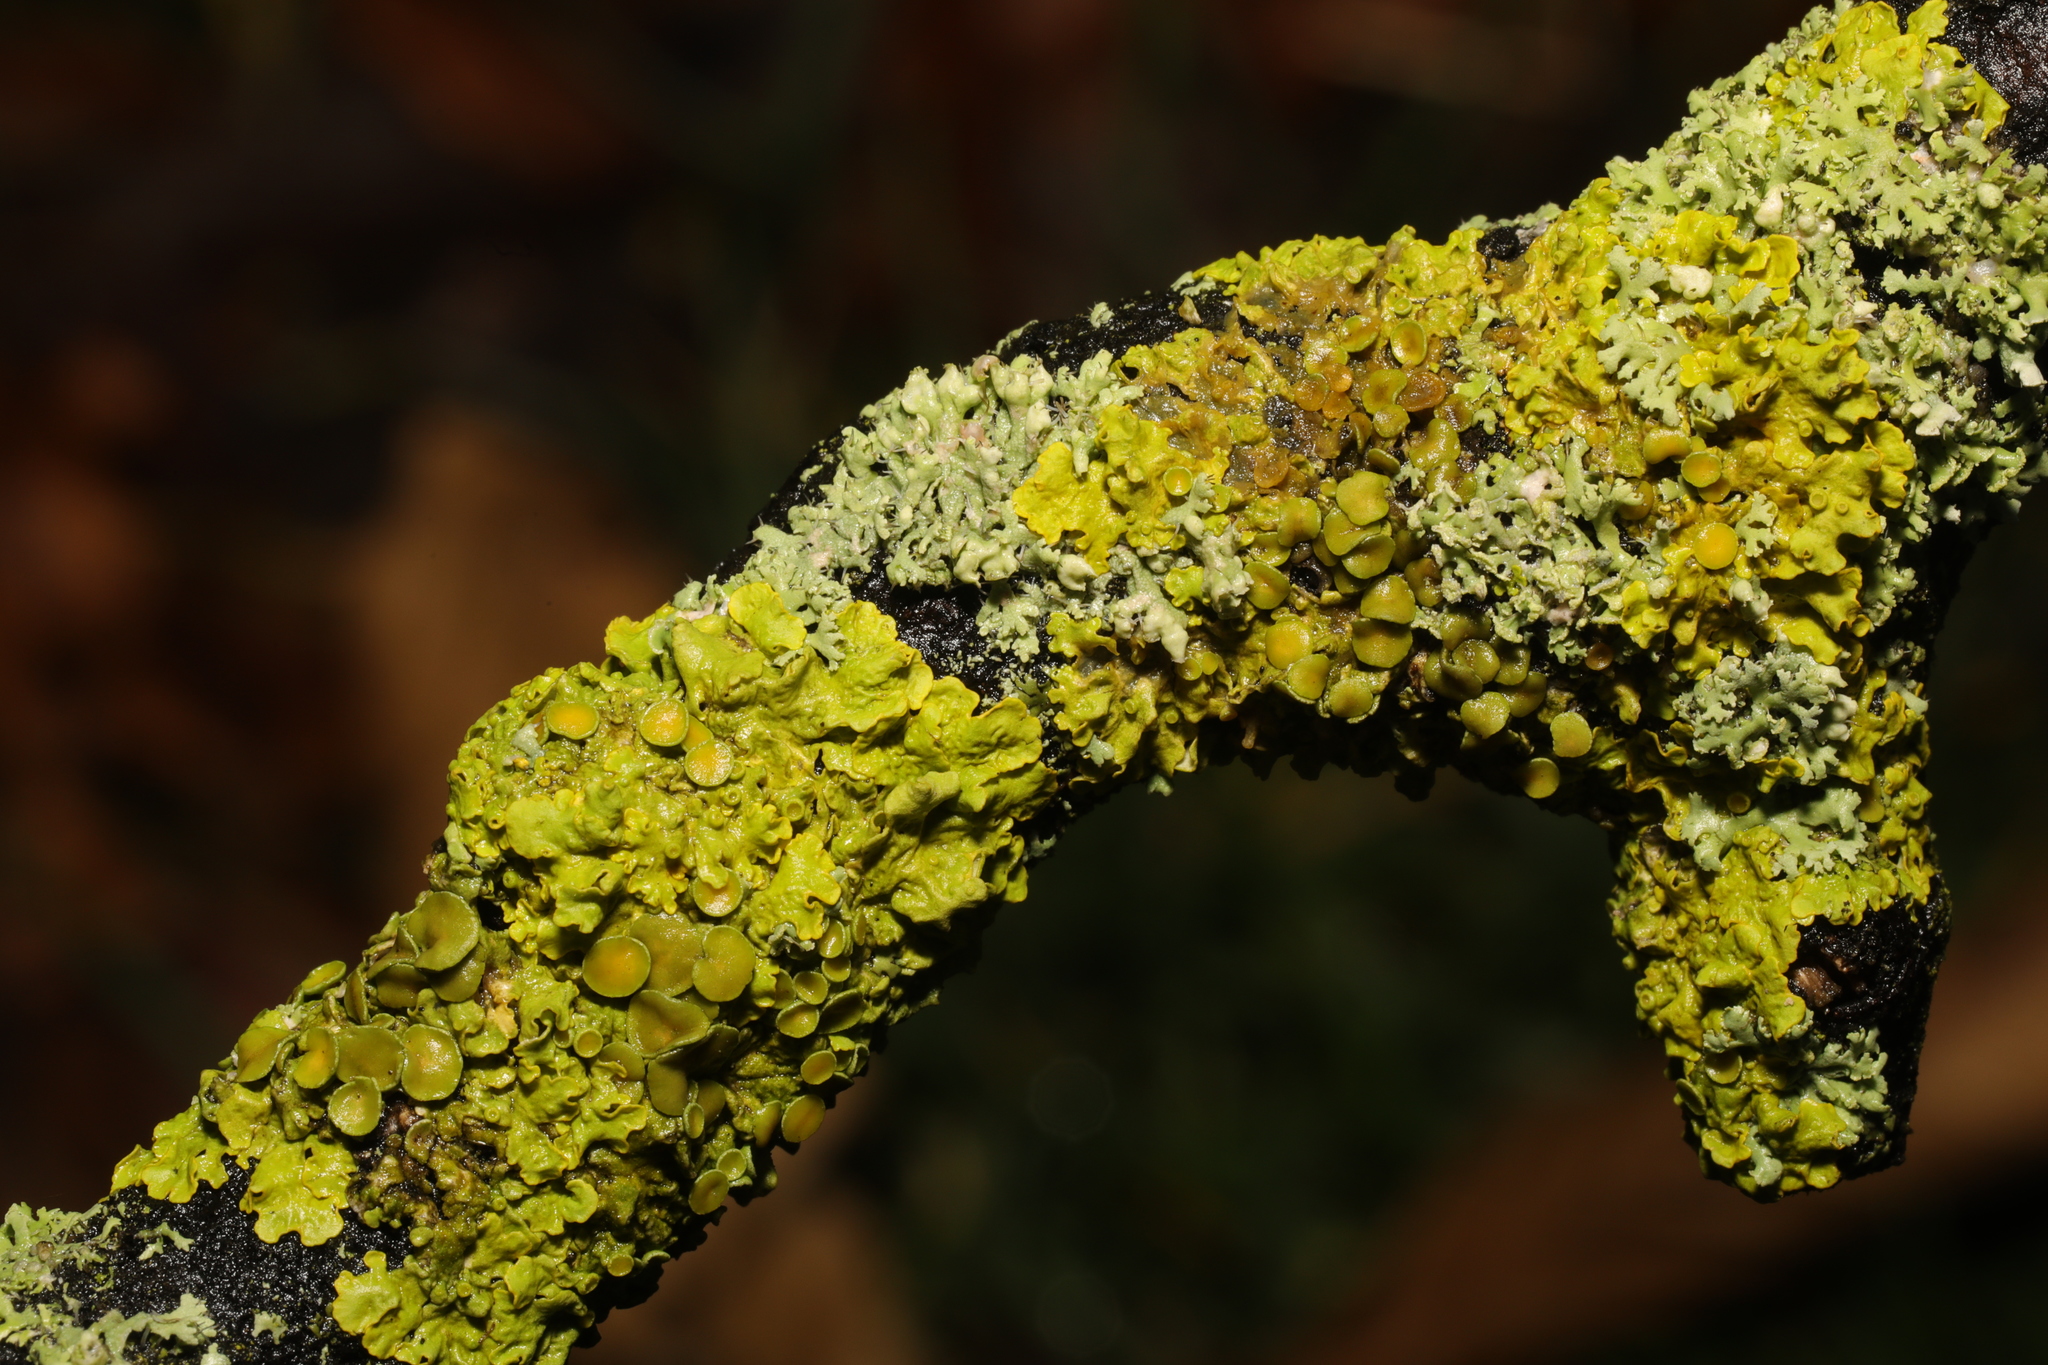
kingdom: Fungi
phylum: Ascomycota
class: Lecanoromycetes
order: Teloschistales
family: Teloschistaceae
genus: Xanthoria
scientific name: Xanthoria parietina
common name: Common orange lichen
